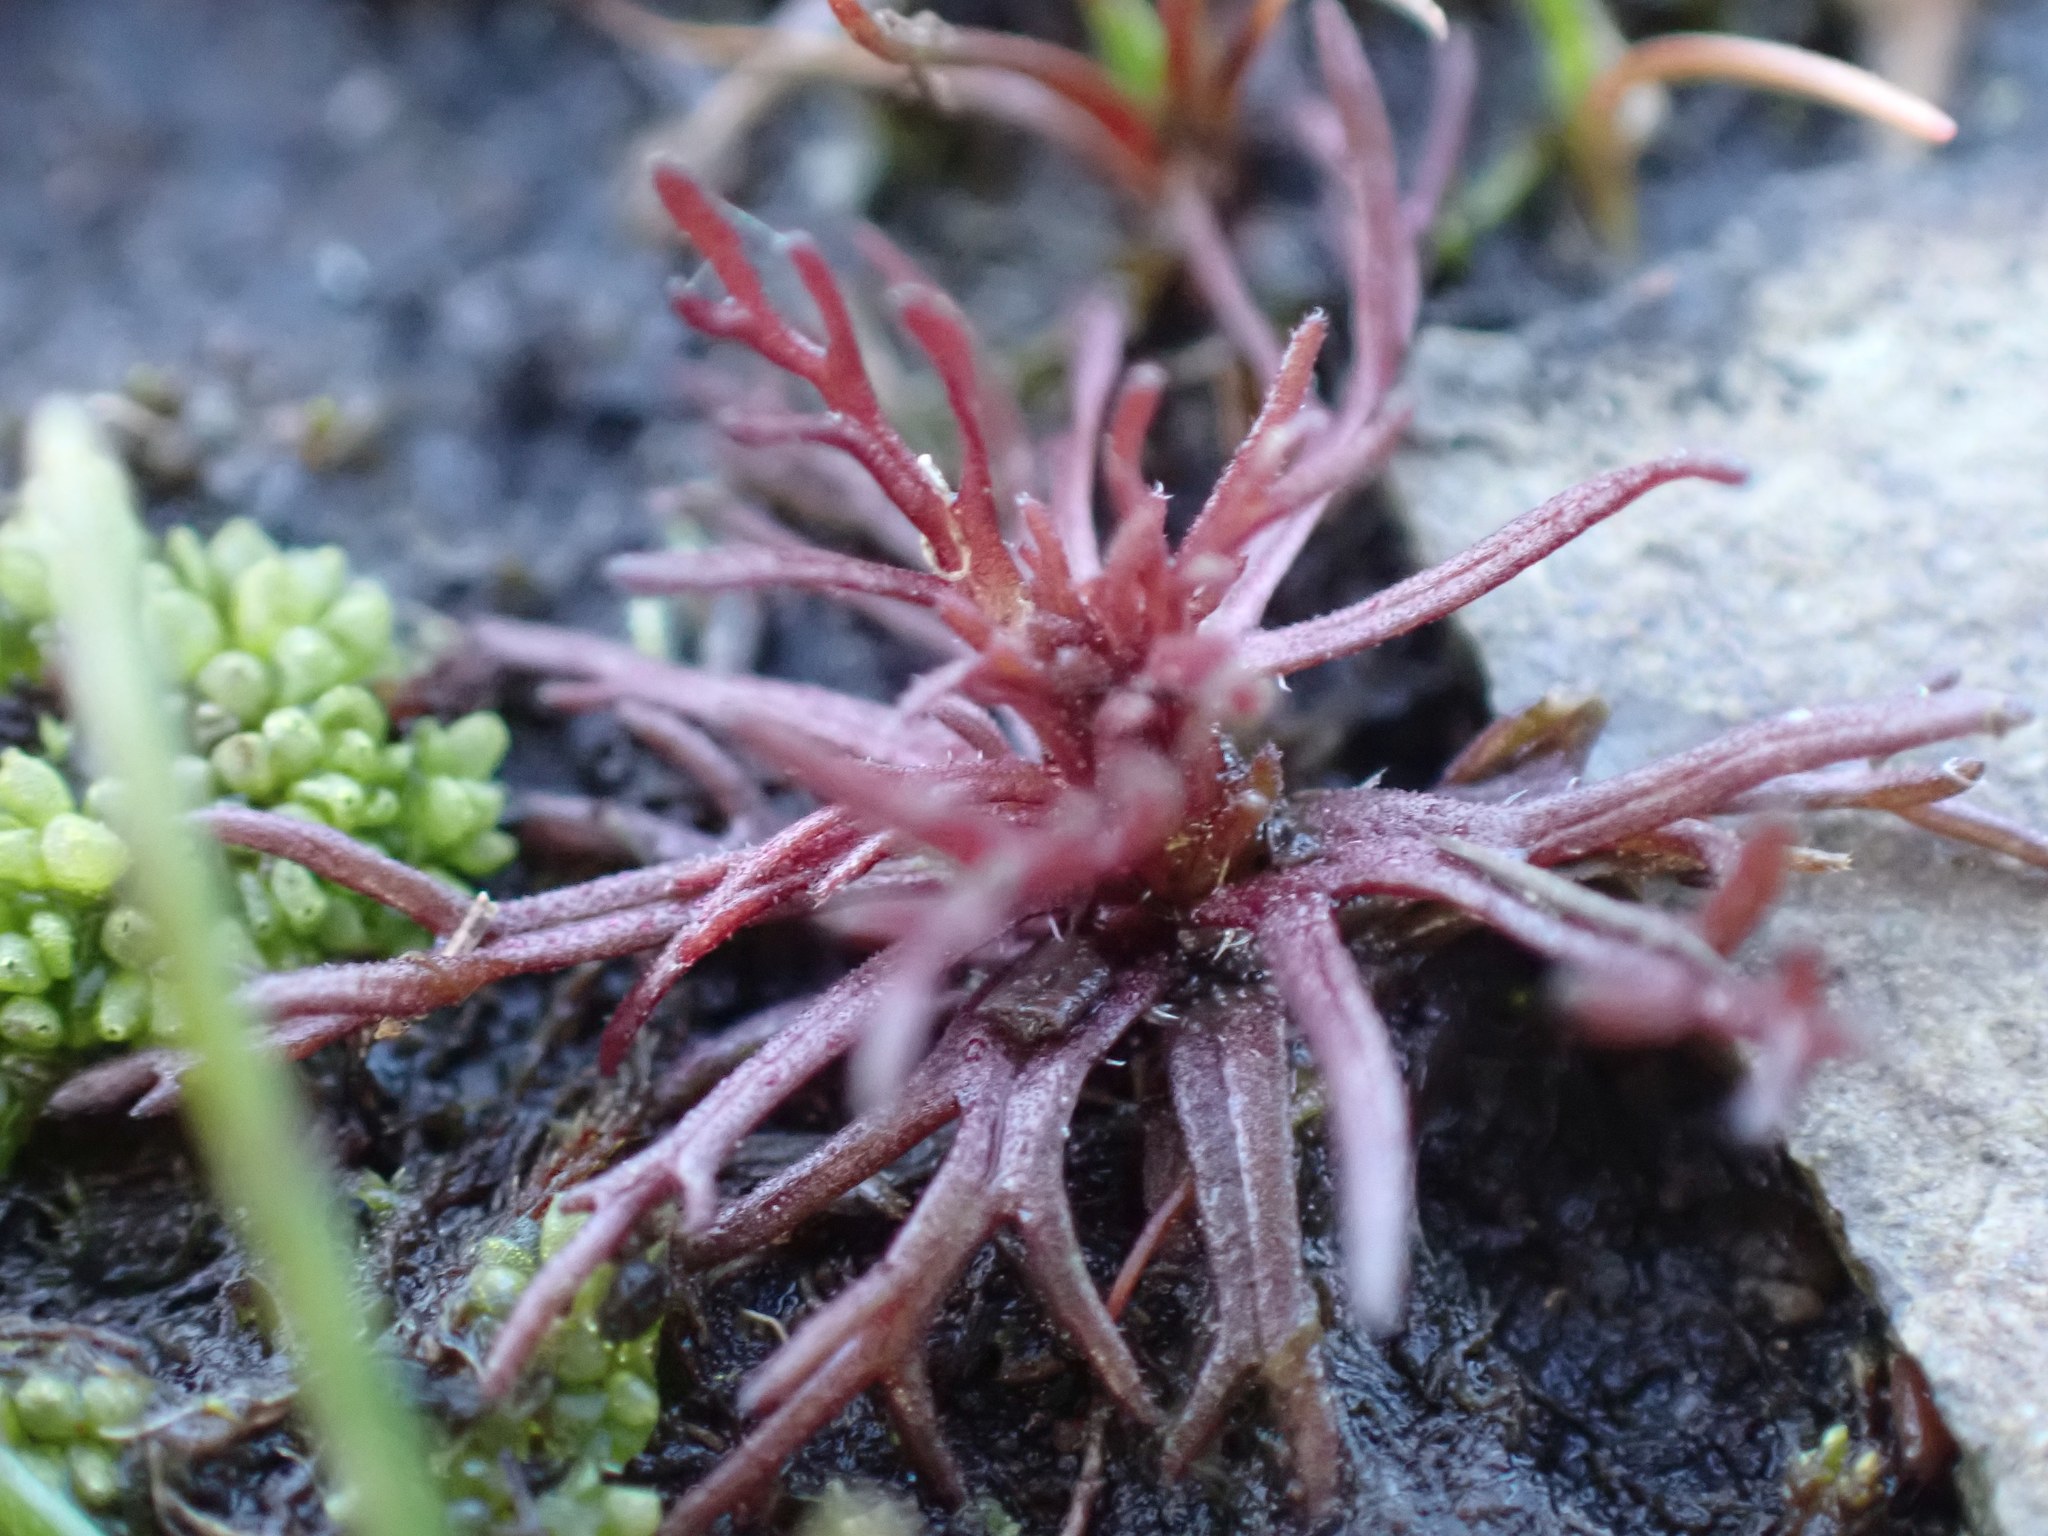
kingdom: Plantae
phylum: Tracheophyta
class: Magnoliopsida
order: Lamiales
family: Orobanchaceae
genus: Triphysaria
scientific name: Triphysaria pusilla
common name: Dwarf false owl-clover
